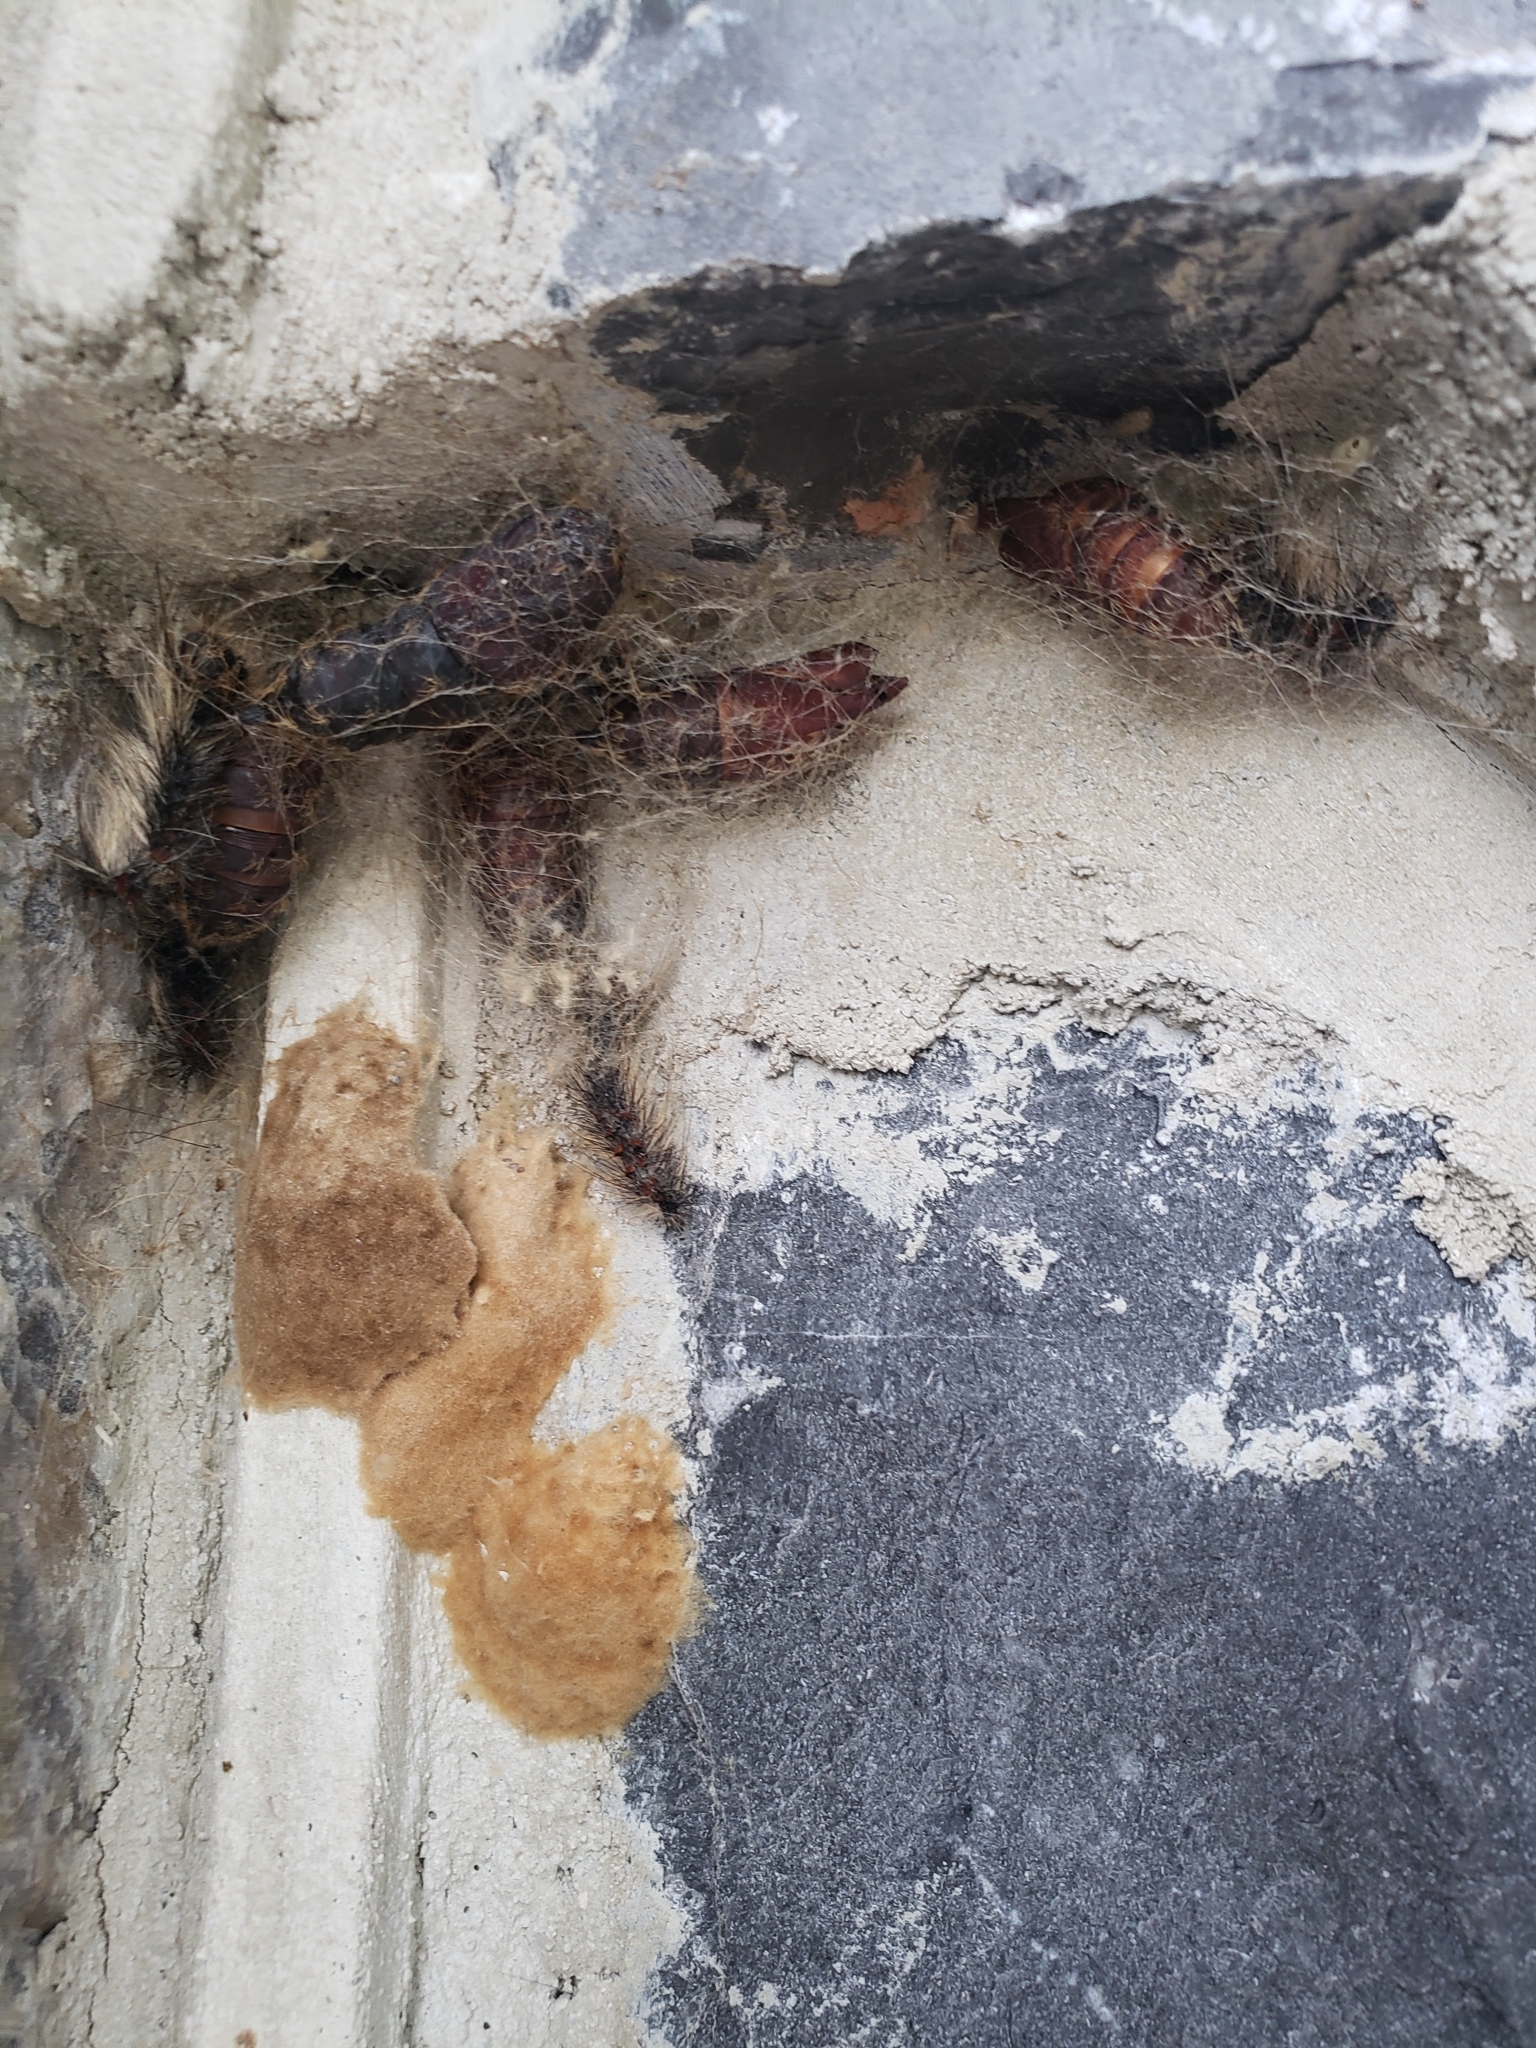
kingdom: Animalia
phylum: Arthropoda
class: Insecta
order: Lepidoptera
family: Erebidae
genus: Lymantria
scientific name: Lymantria dispar
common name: Gypsy moth
